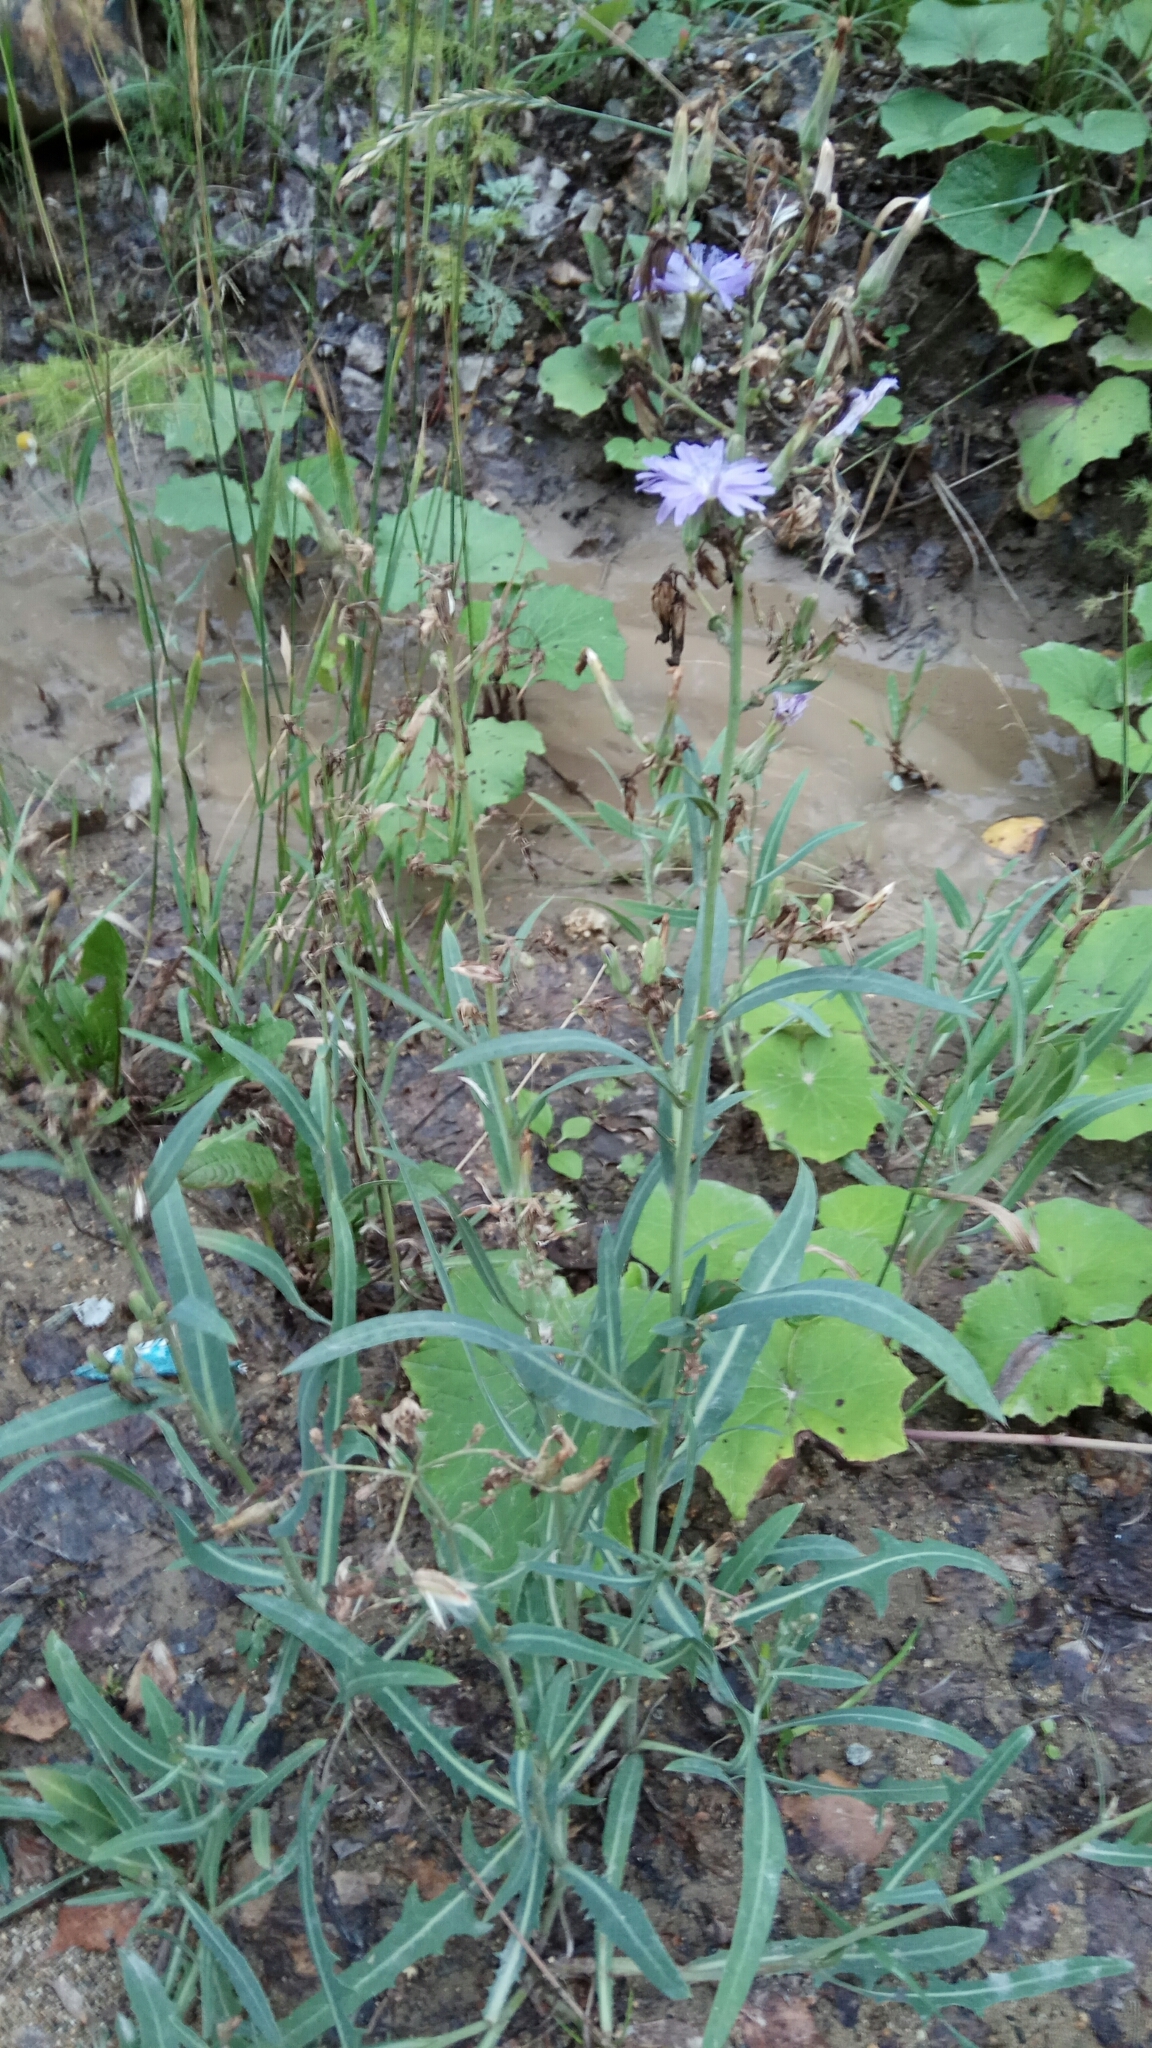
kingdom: Plantae
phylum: Tracheophyta
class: Magnoliopsida
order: Asterales
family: Asteraceae
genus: Lactuca
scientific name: Lactuca tatarica
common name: Blue lettuce
